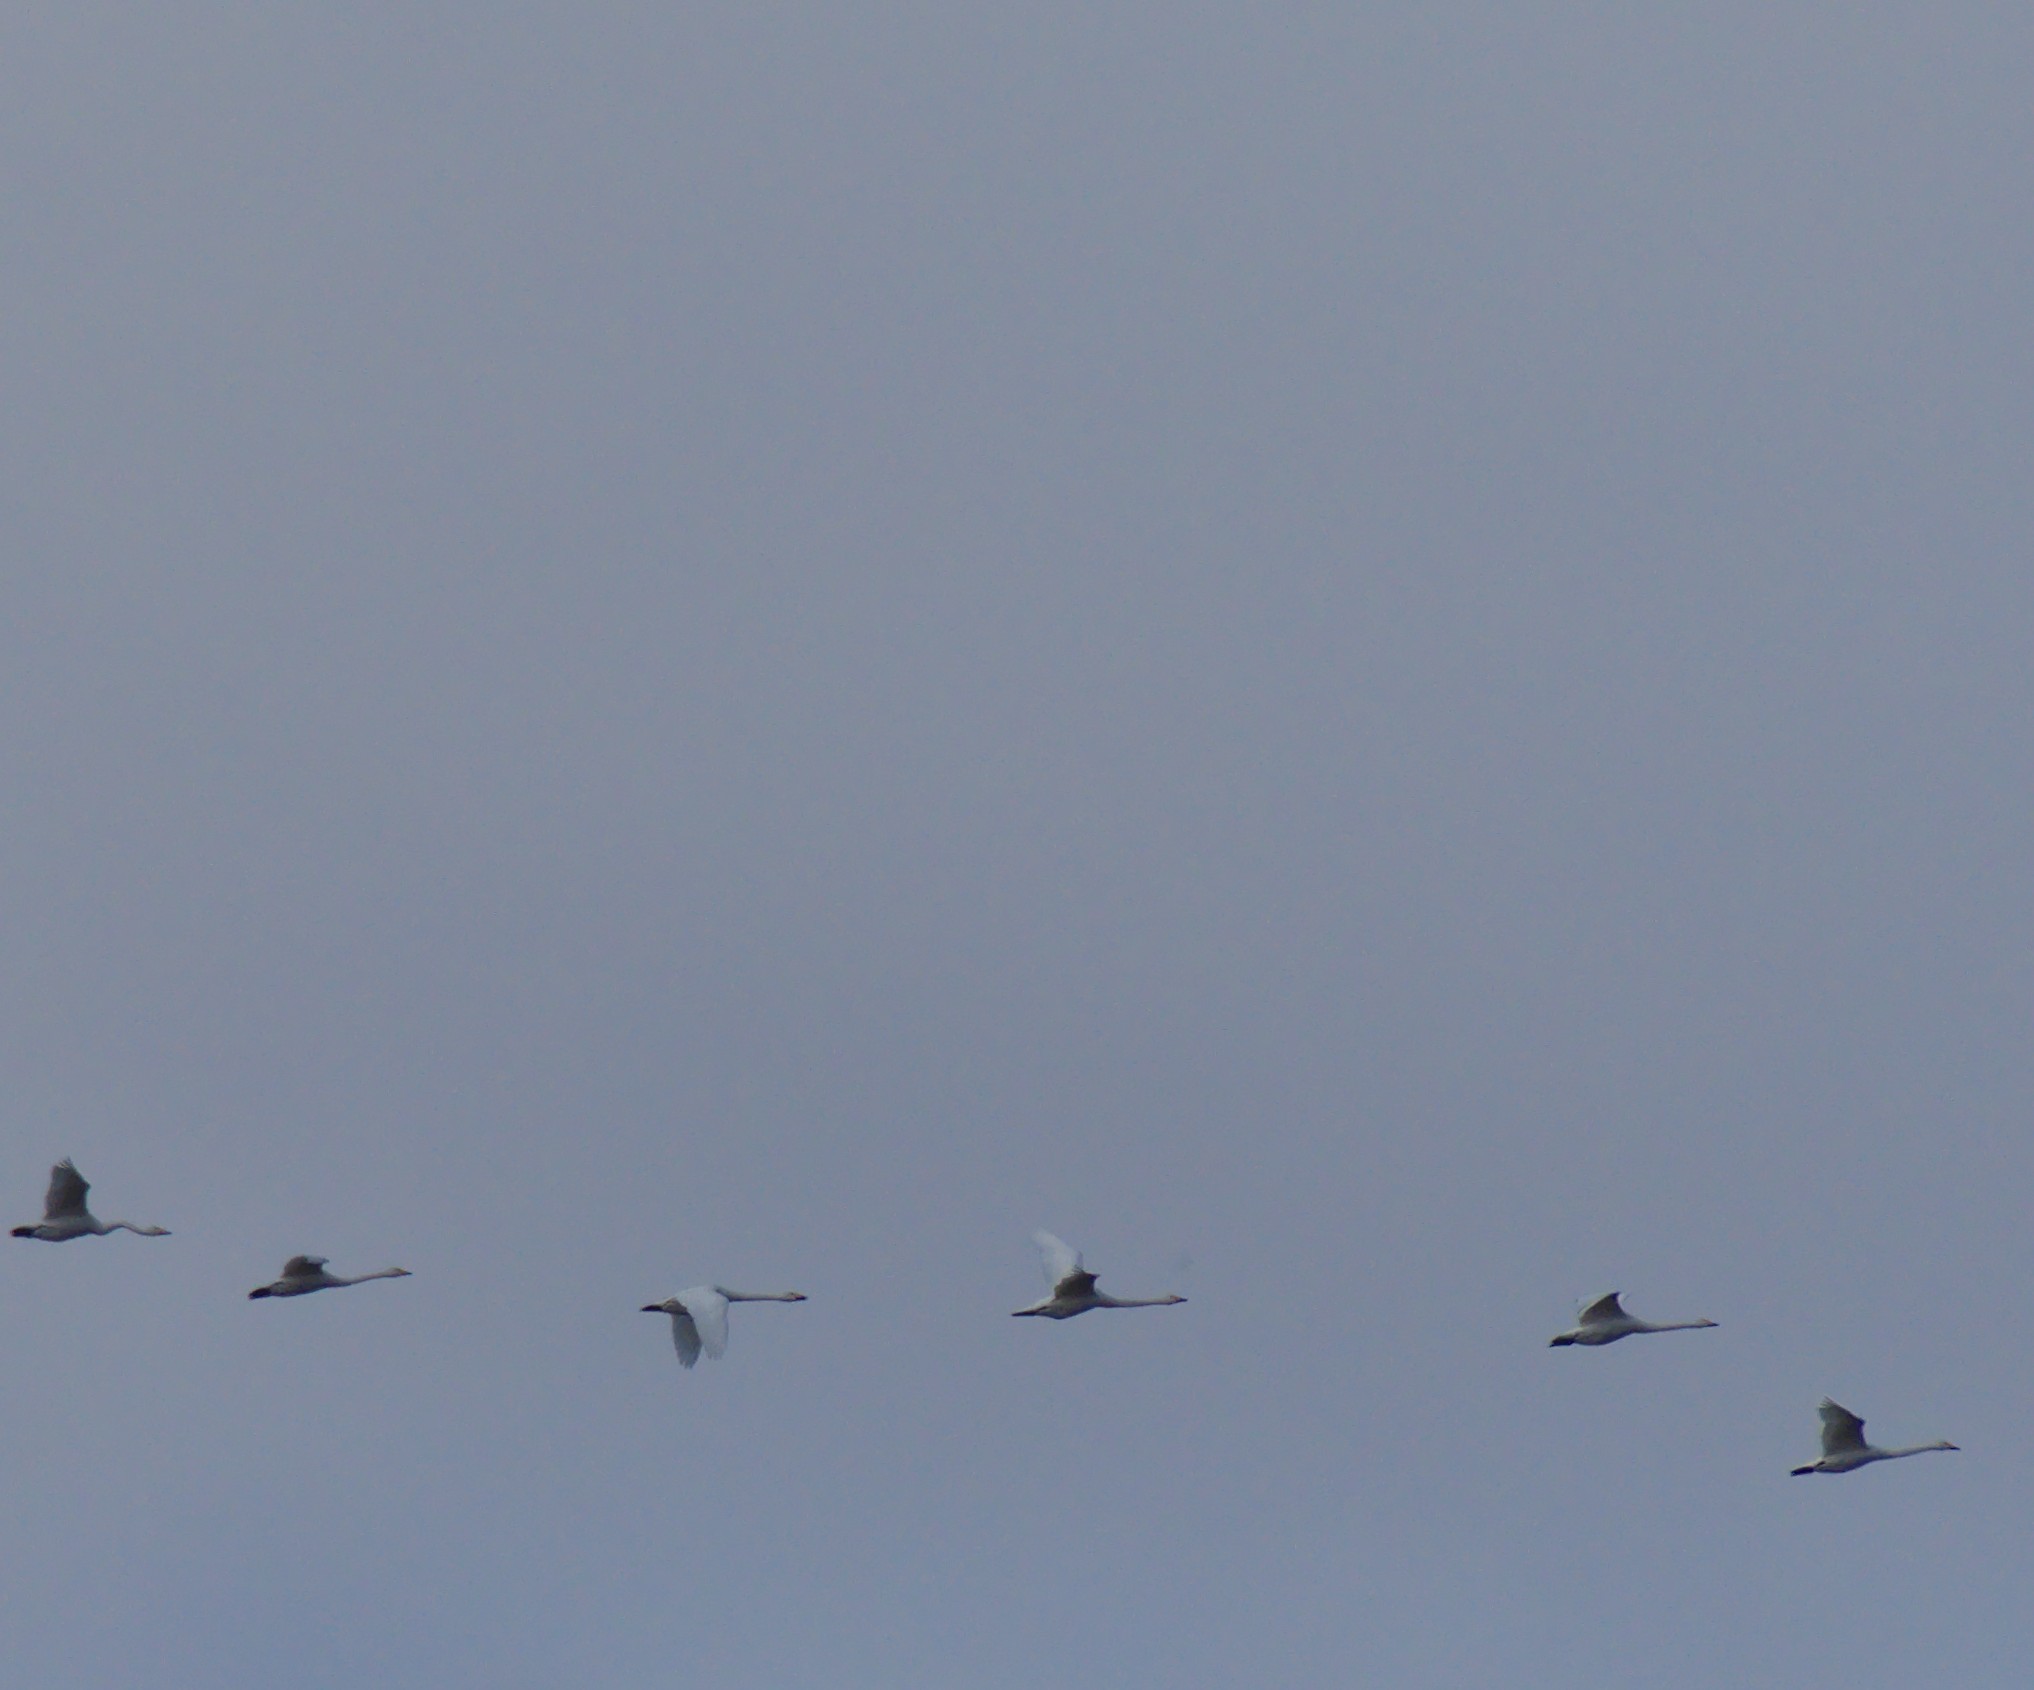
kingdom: Animalia
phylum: Chordata
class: Aves
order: Anseriformes
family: Anatidae
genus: Cygnus
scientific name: Cygnus cygnus
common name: Whooper swan
